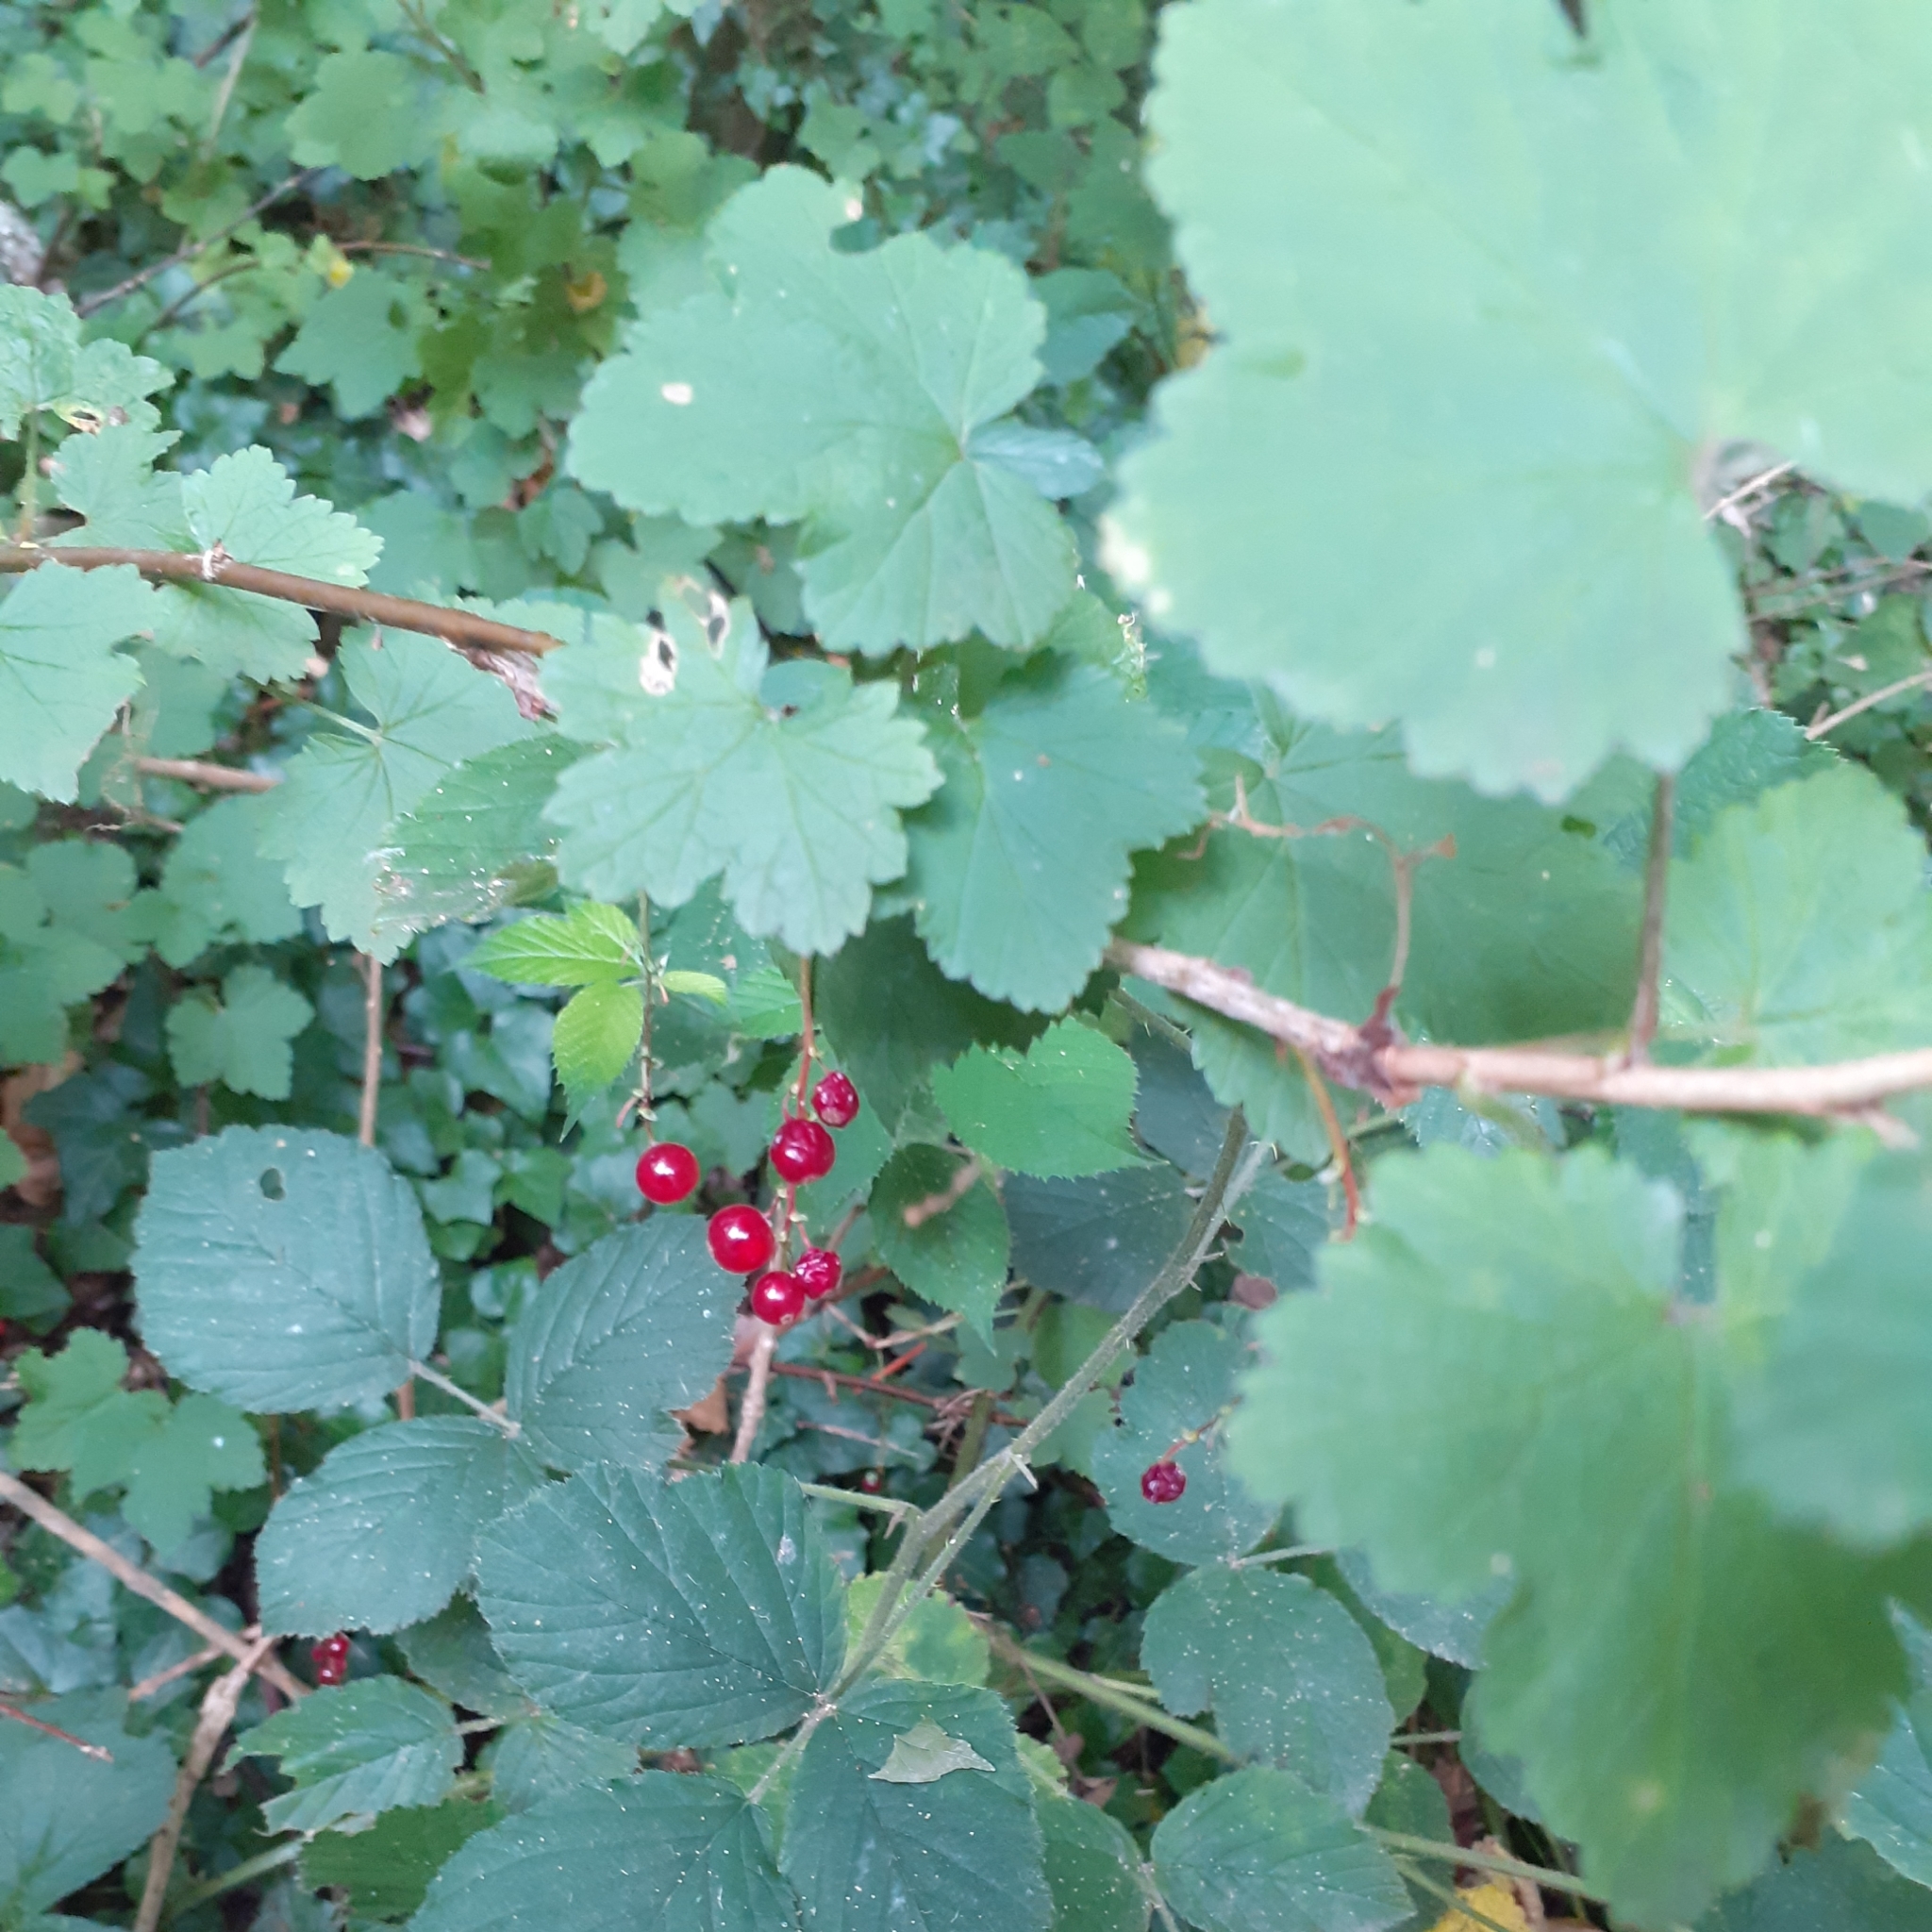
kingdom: Plantae
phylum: Tracheophyta
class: Magnoliopsida
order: Saxifragales
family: Grossulariaceae
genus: Ribes
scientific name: Ribes rubrum
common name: Red currant
